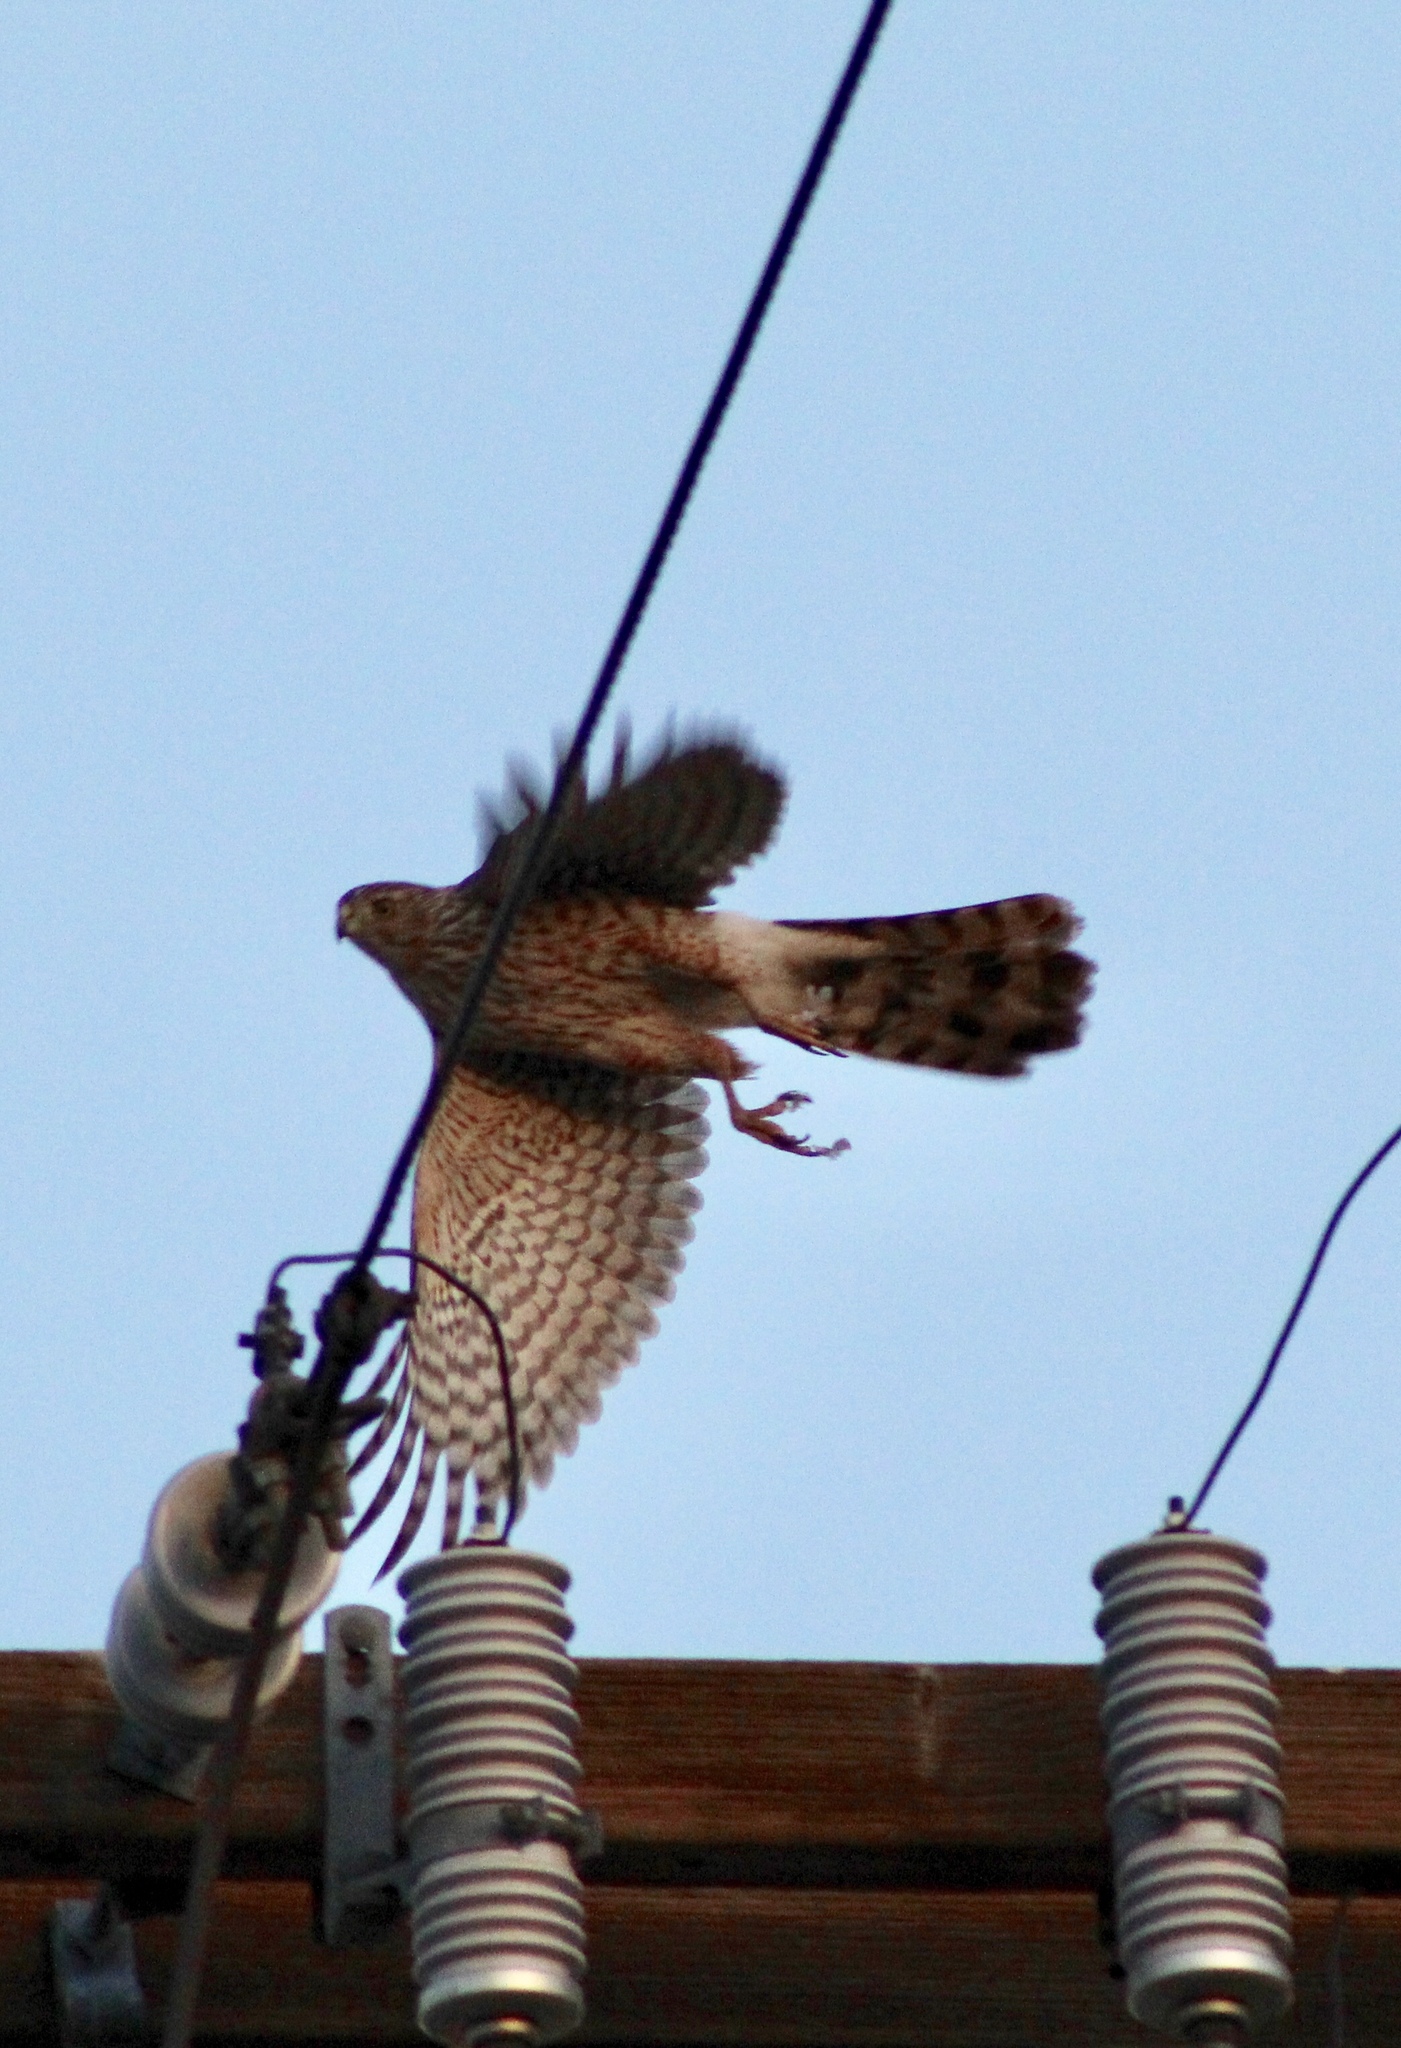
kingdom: Animalia
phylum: Chordata
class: Aves
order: Accipitriformes
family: Accipitridae
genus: Accipiter
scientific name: Accipiter cooperii
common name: Cooper's hawk
